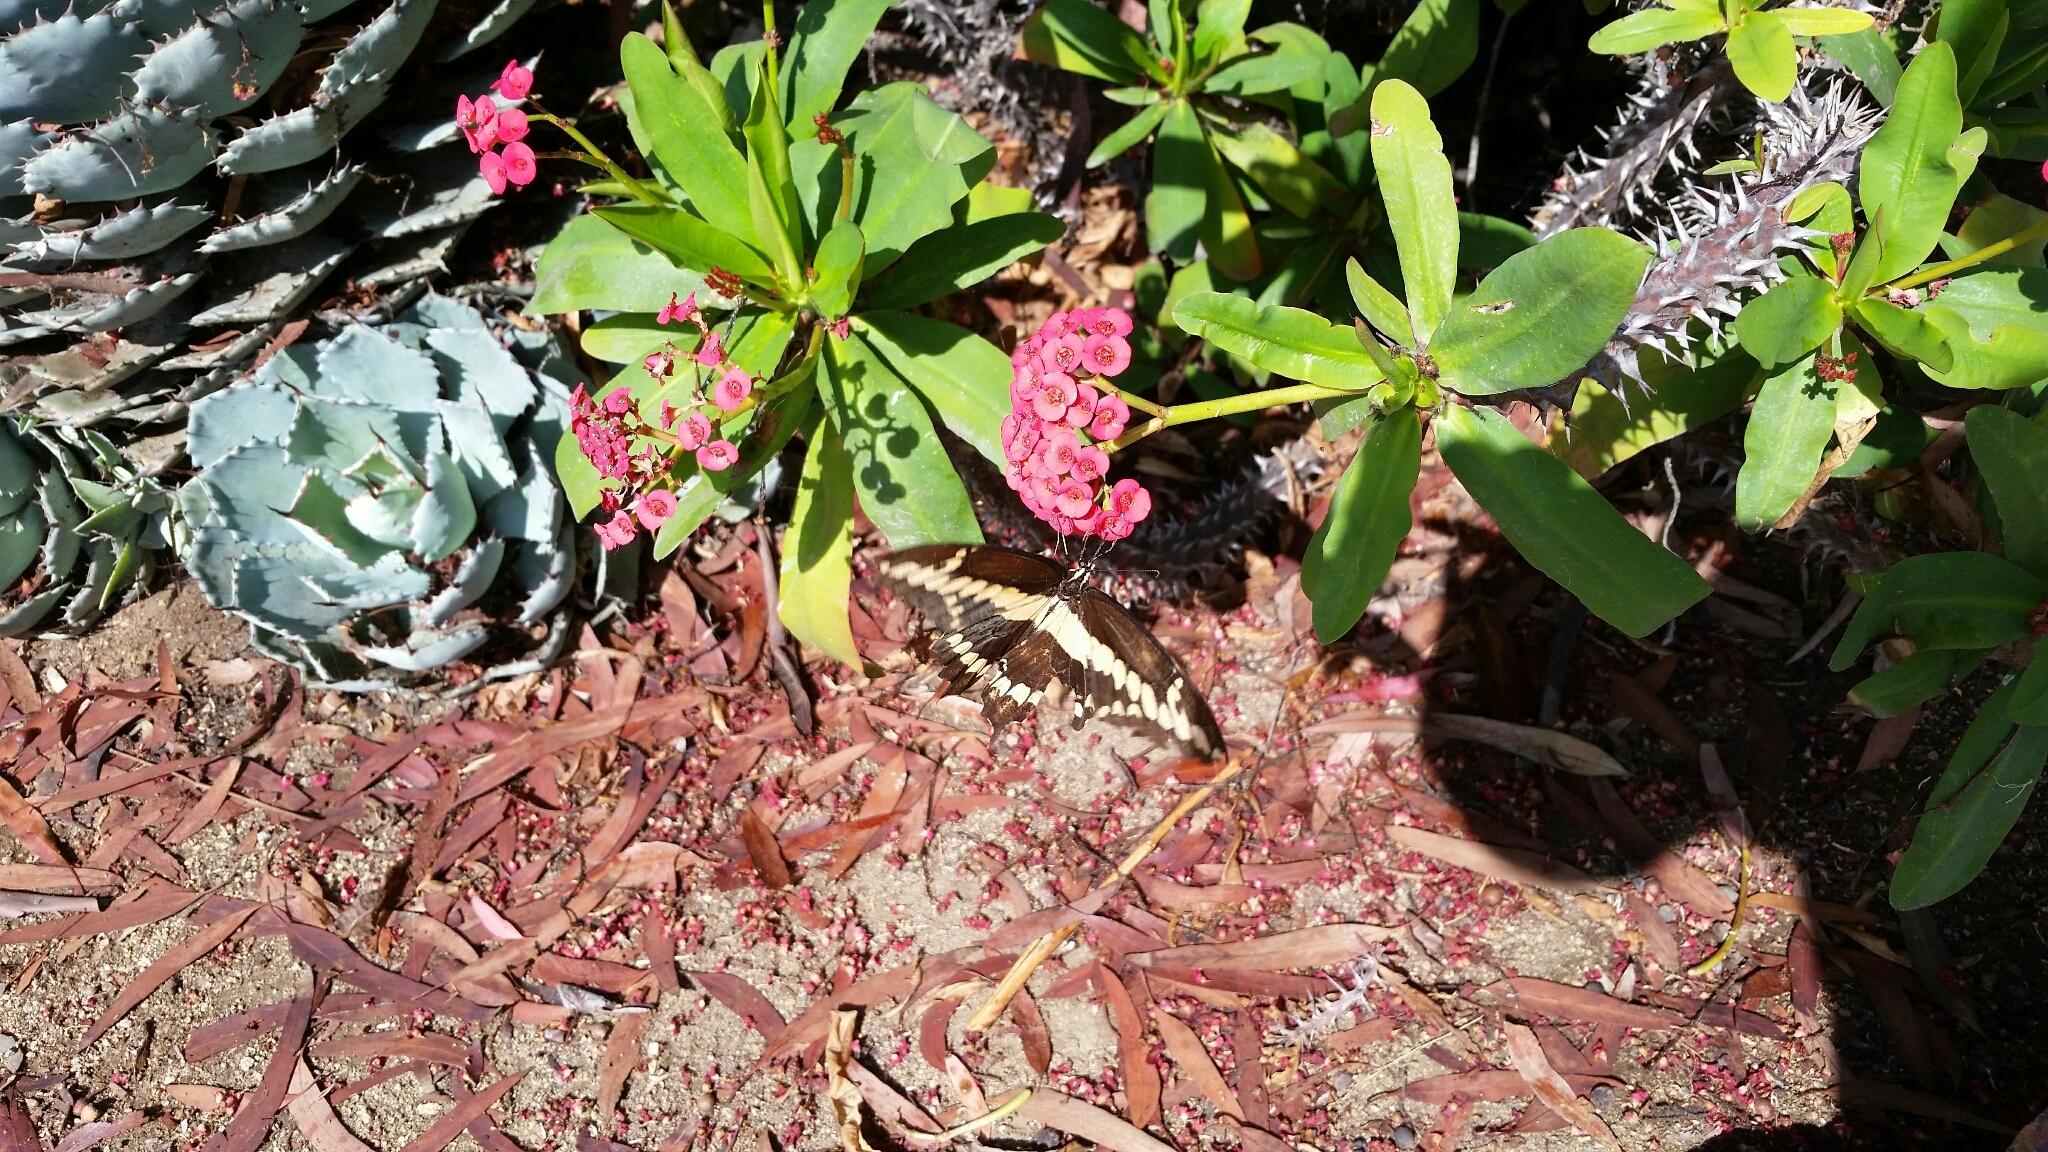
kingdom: Animalia
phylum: Arthropoda
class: Insecta
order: Lepidoptera
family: Papilionidae
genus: Papilio
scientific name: Papilio rumiko
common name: Western giant swallowtail
